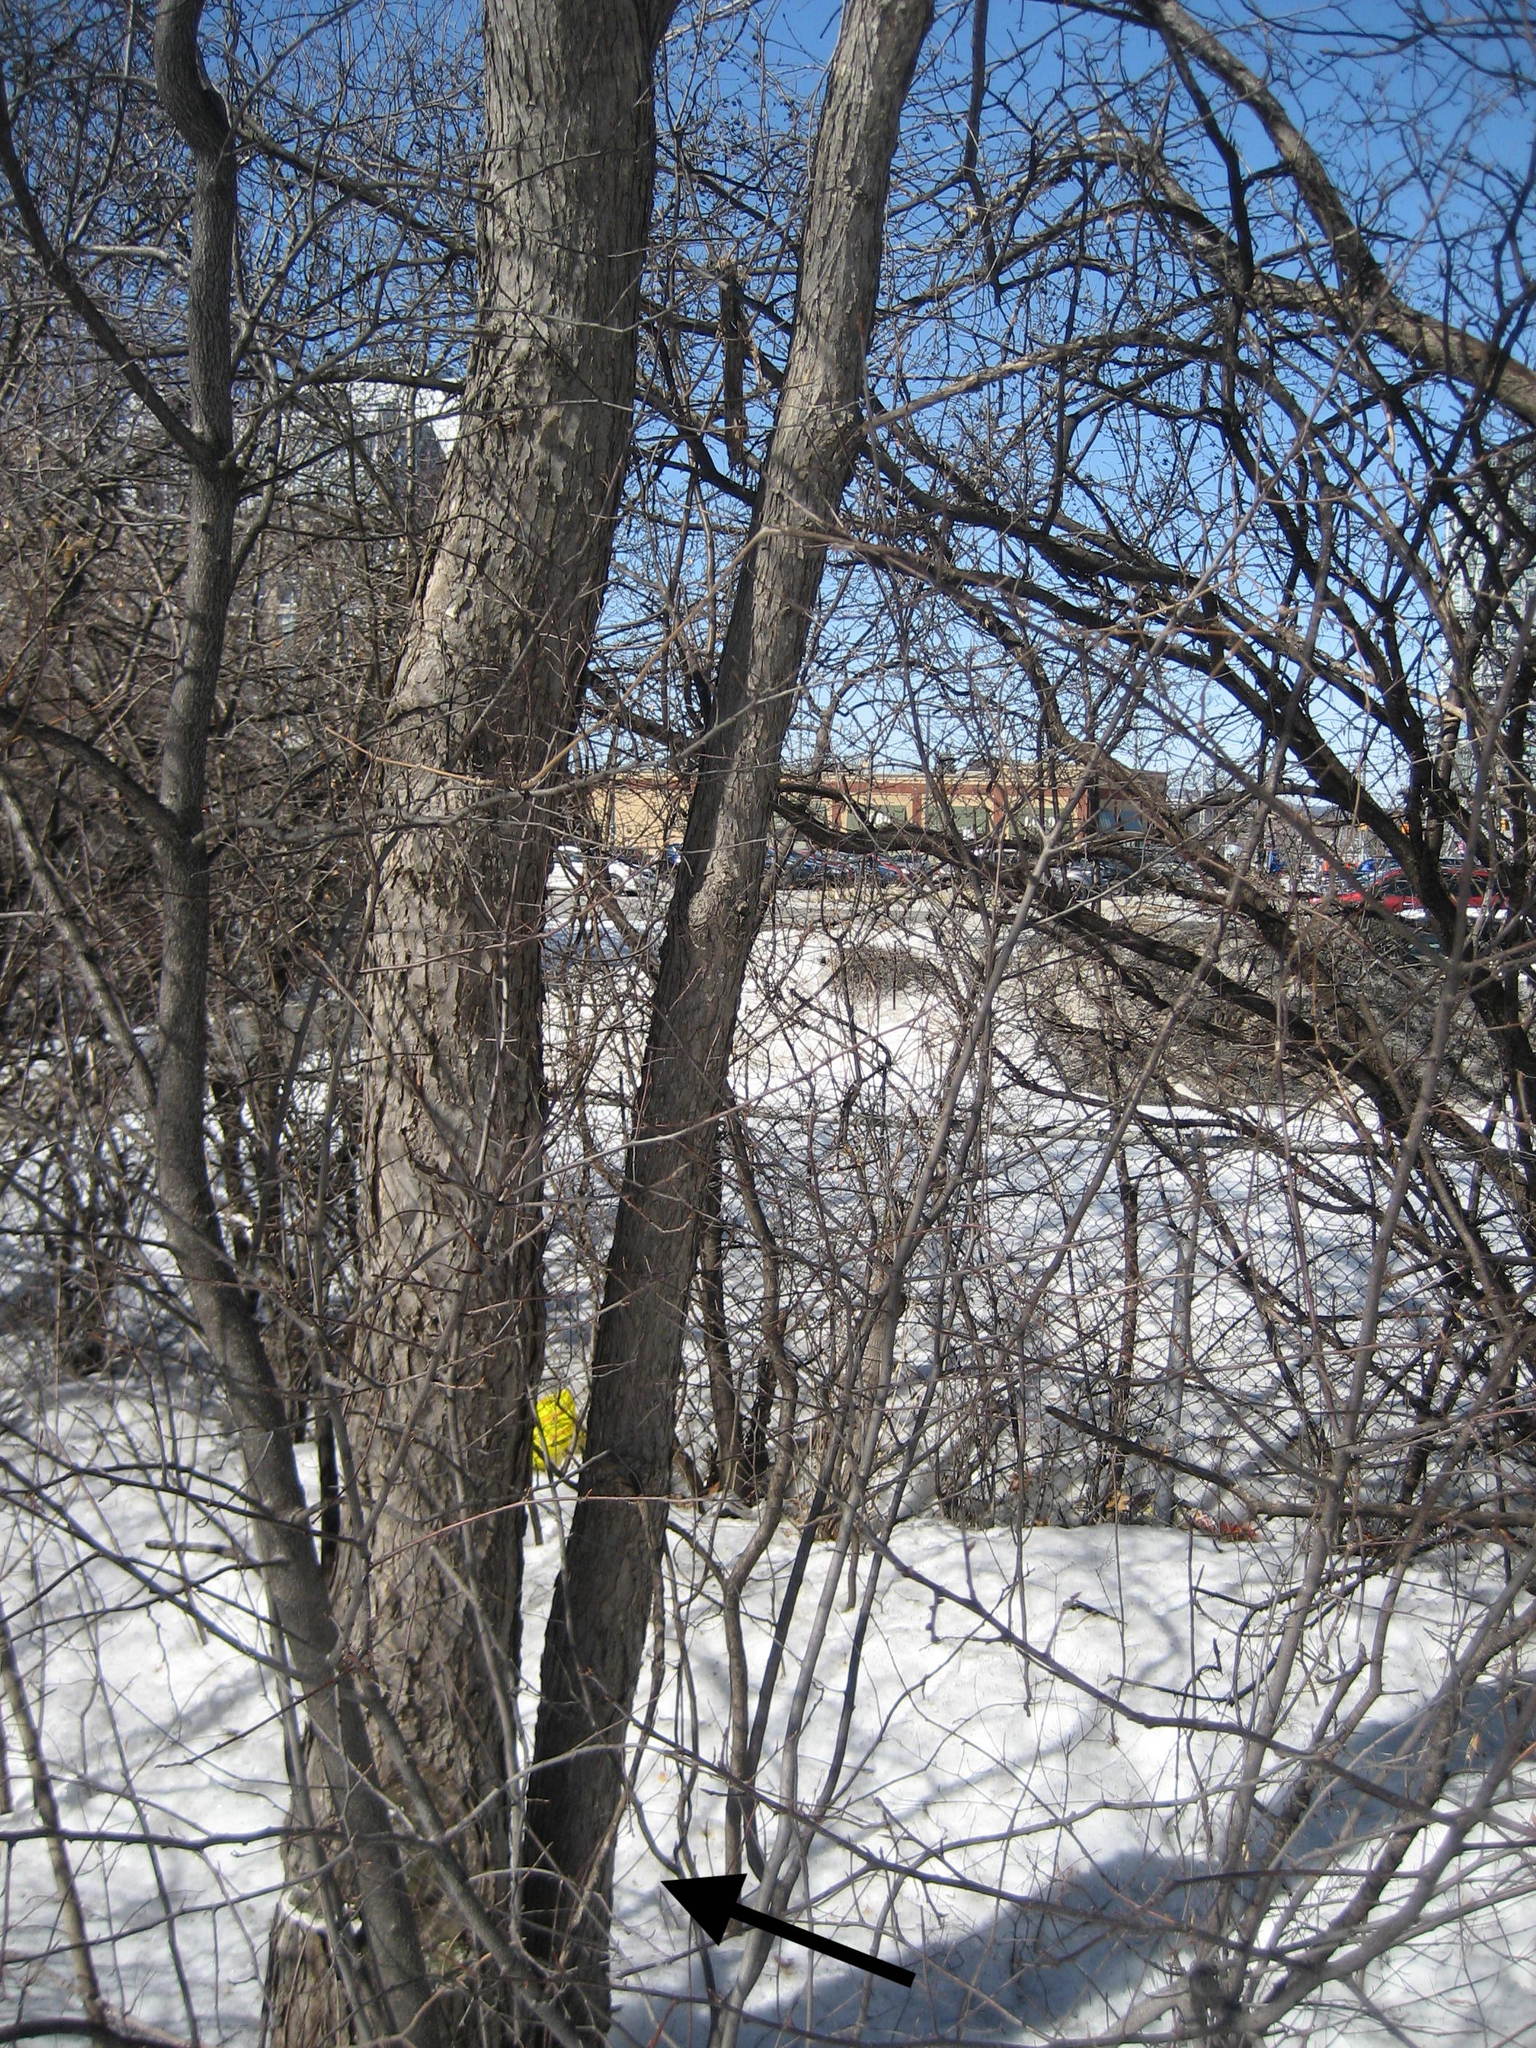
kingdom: Plantae
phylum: Tracheophyta
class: Magnoliopsida
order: Rosales
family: Ulmaceae
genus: Ulmus
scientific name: Ulmus americana
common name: American elm
